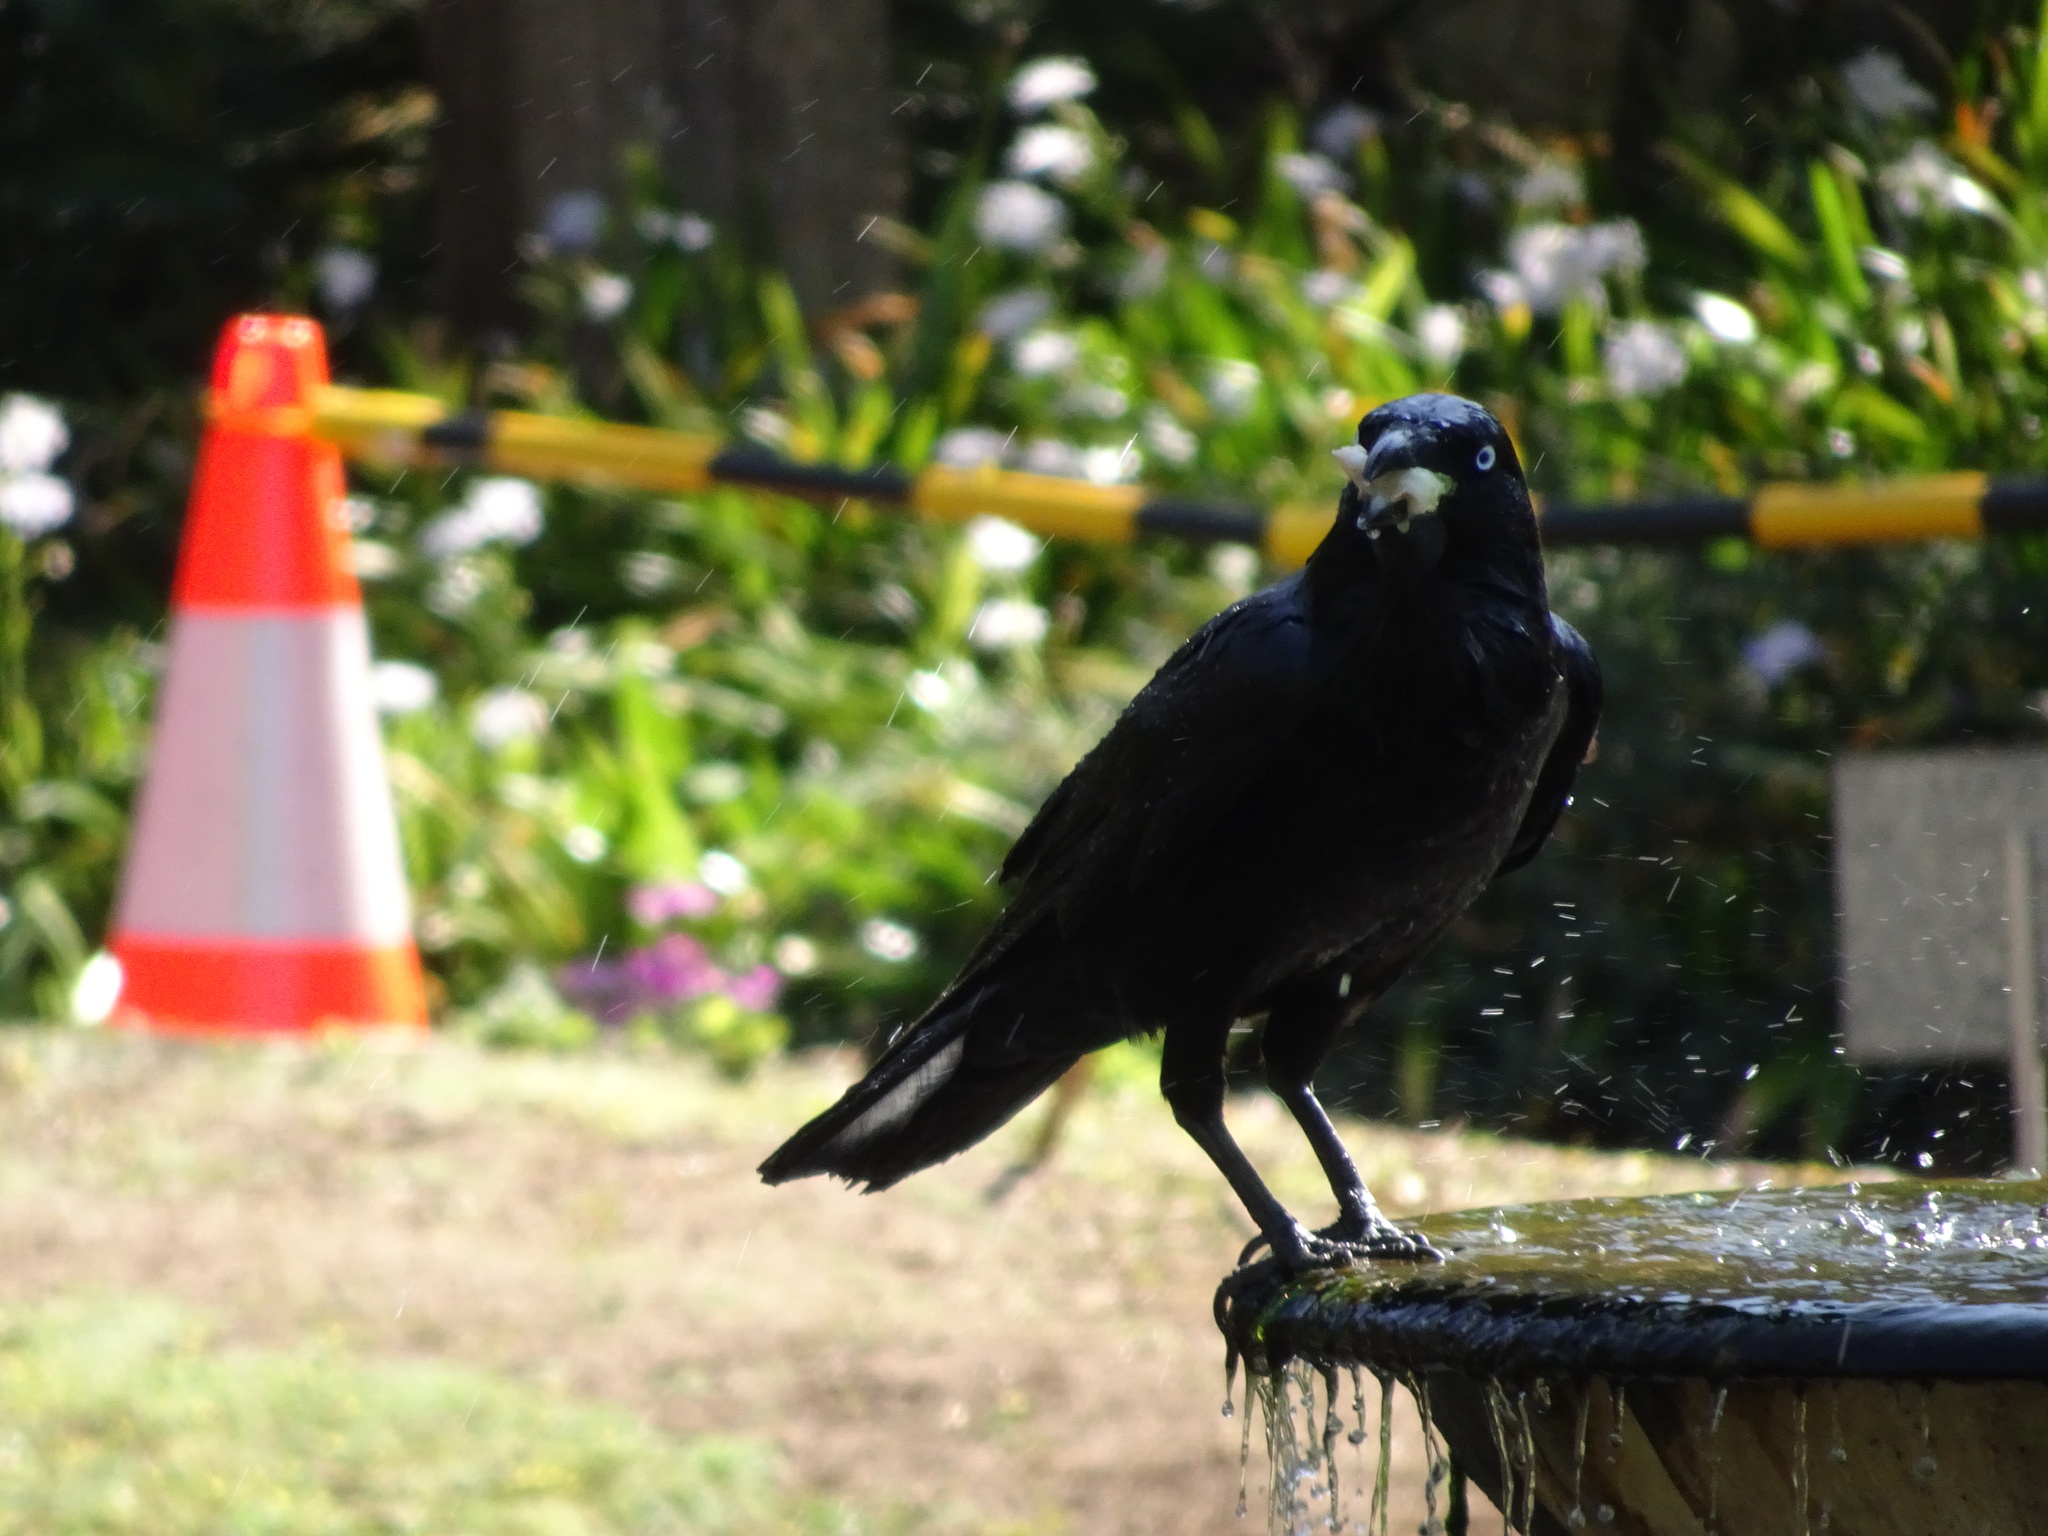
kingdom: Animalia
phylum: Chordata
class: Aves
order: Passeriformes
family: Corvidae
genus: Corvus
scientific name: Corvus coronoides
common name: Australian raven
